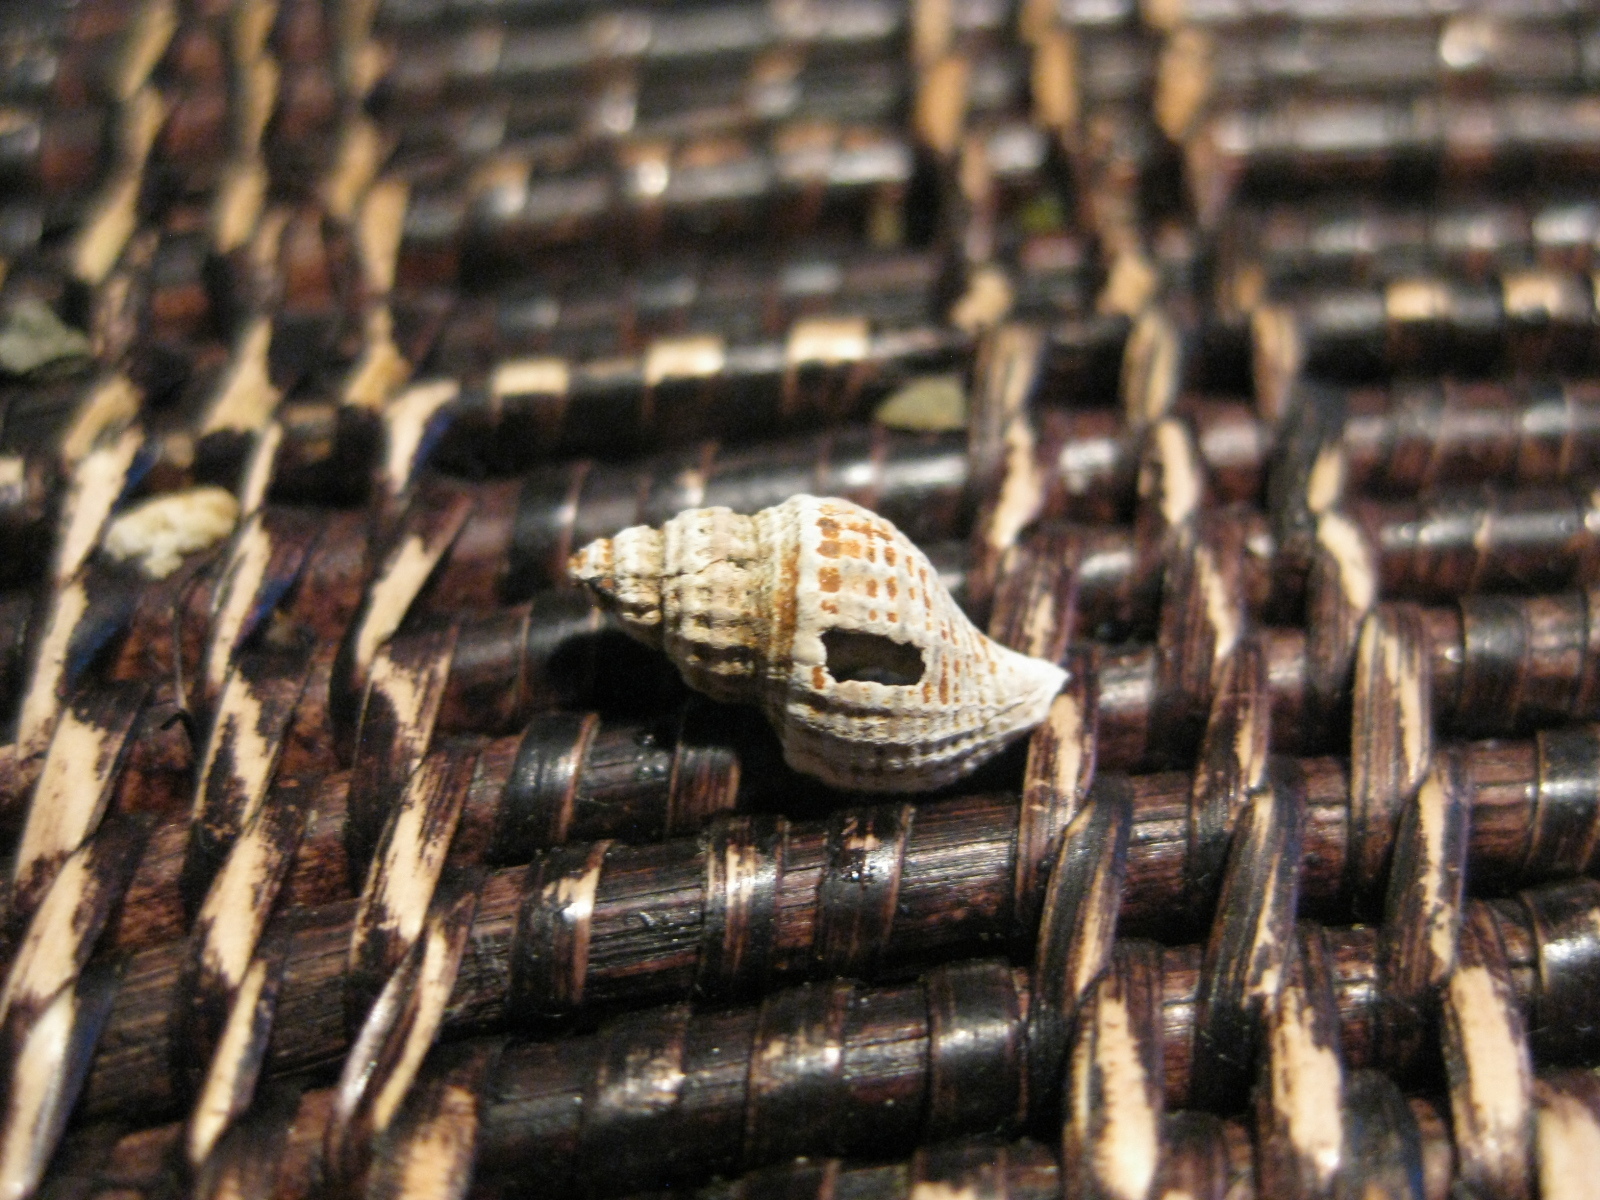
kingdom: Animalia
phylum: Mollusca
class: Gastropoda
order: Neogastropoda
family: Muricidae
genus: Xymene
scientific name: Xymene plebeius
